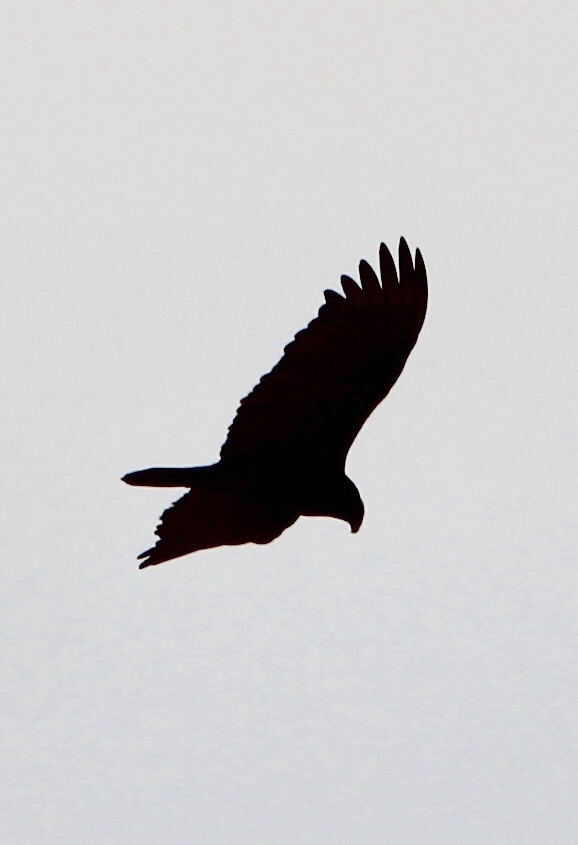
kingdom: Animalia
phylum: Chordata
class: Aves
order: Accipitriformes
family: Cathartidae
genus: Cathartes
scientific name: Cathartes aura
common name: Turkey vulture
